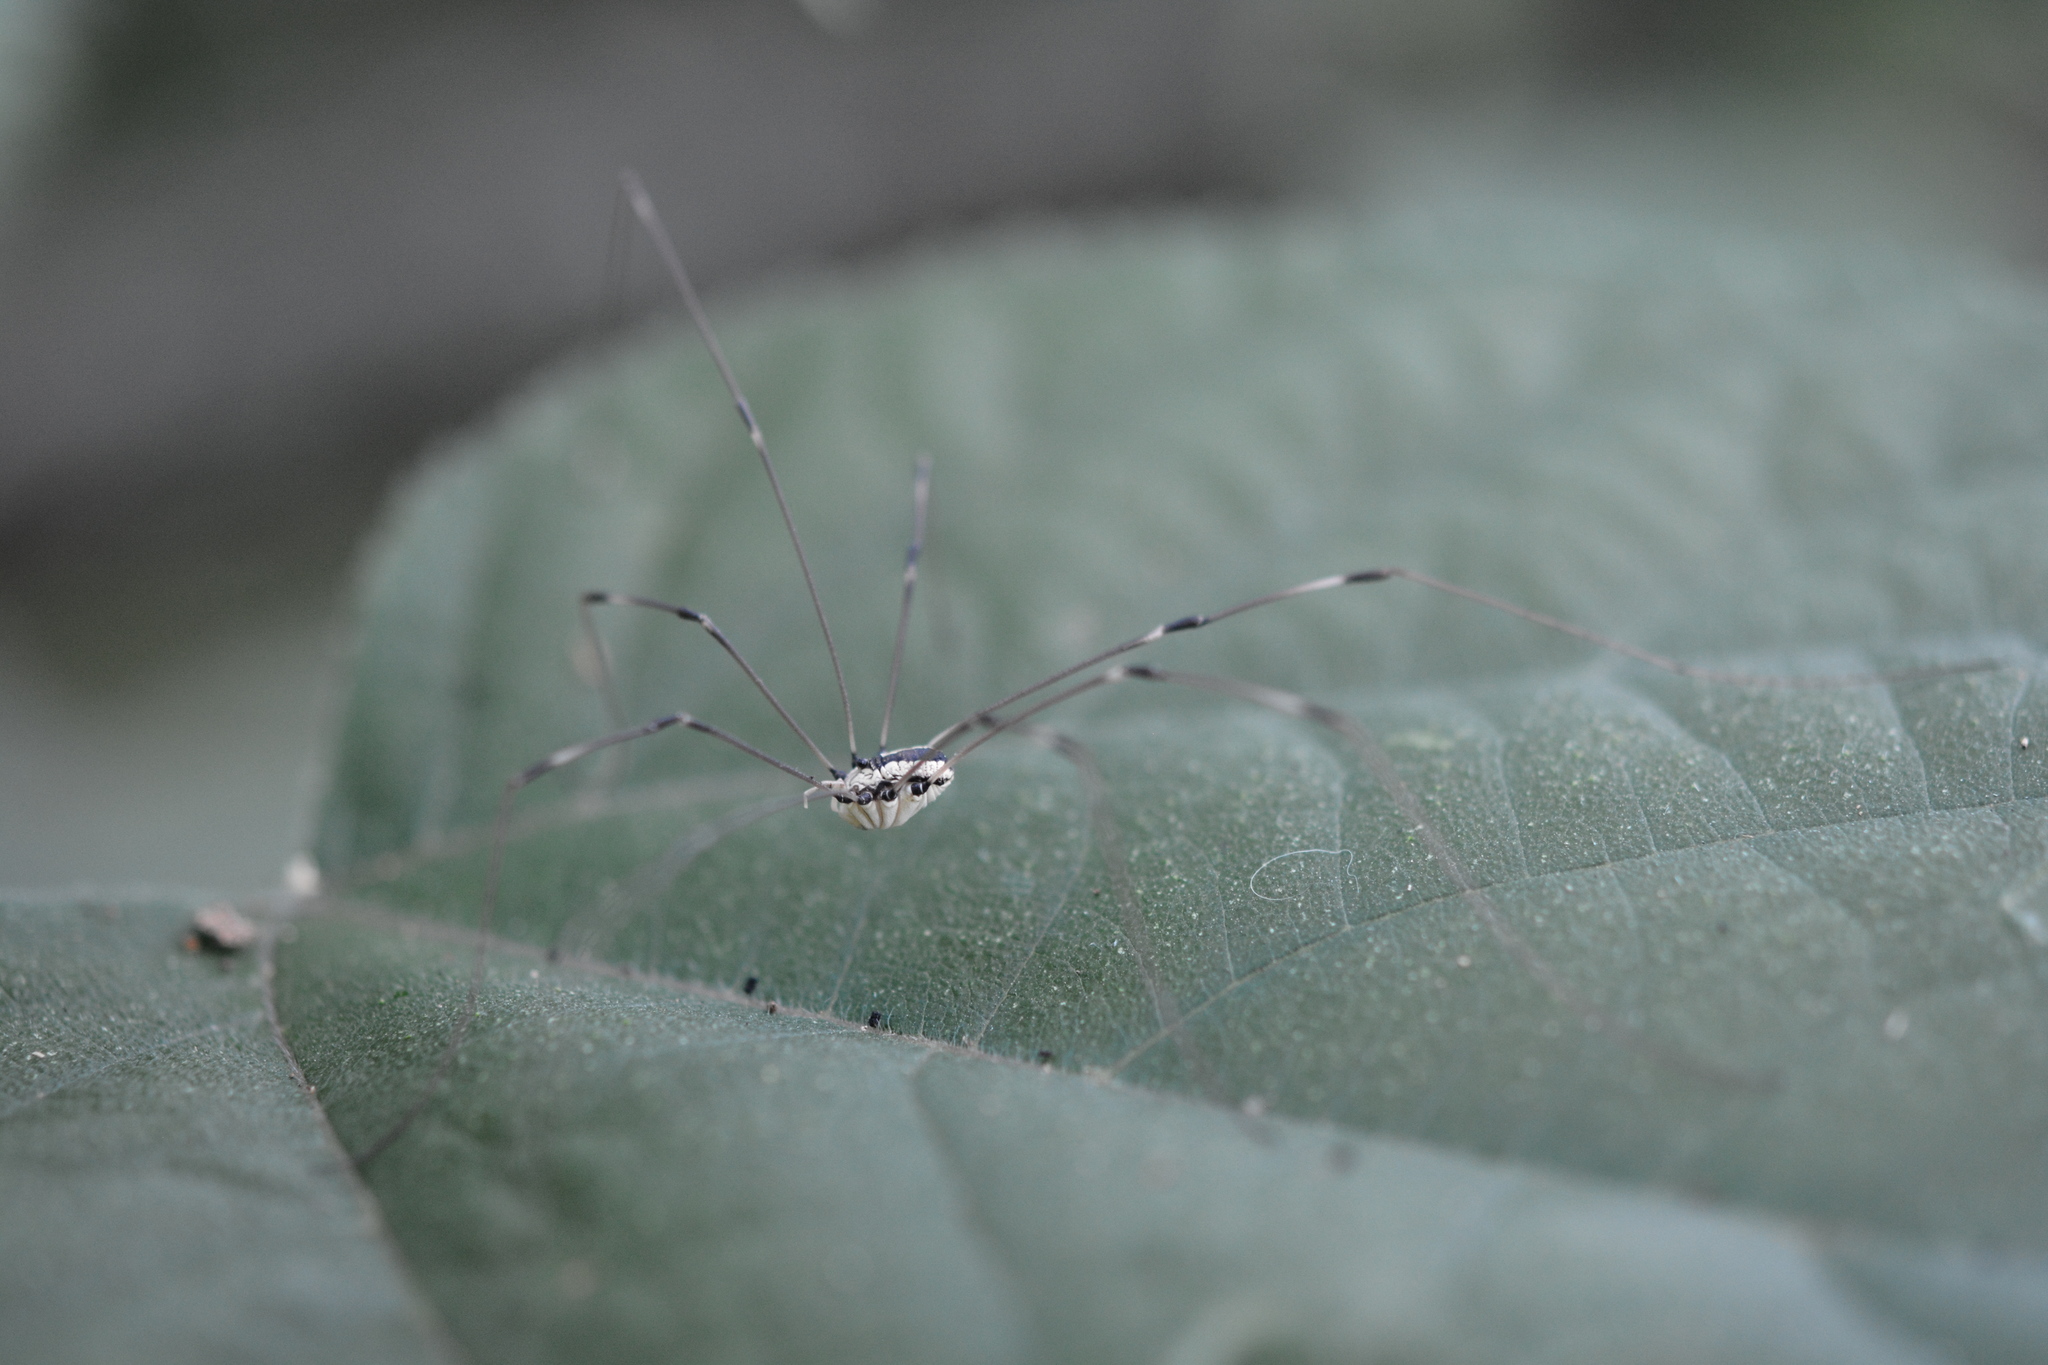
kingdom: Animalia
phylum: Arthropoda
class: Arachnida
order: Opiliones
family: Sclerosomatidae
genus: Leiobunum
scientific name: Leiobunum vittatum
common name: Eastern harvestman
